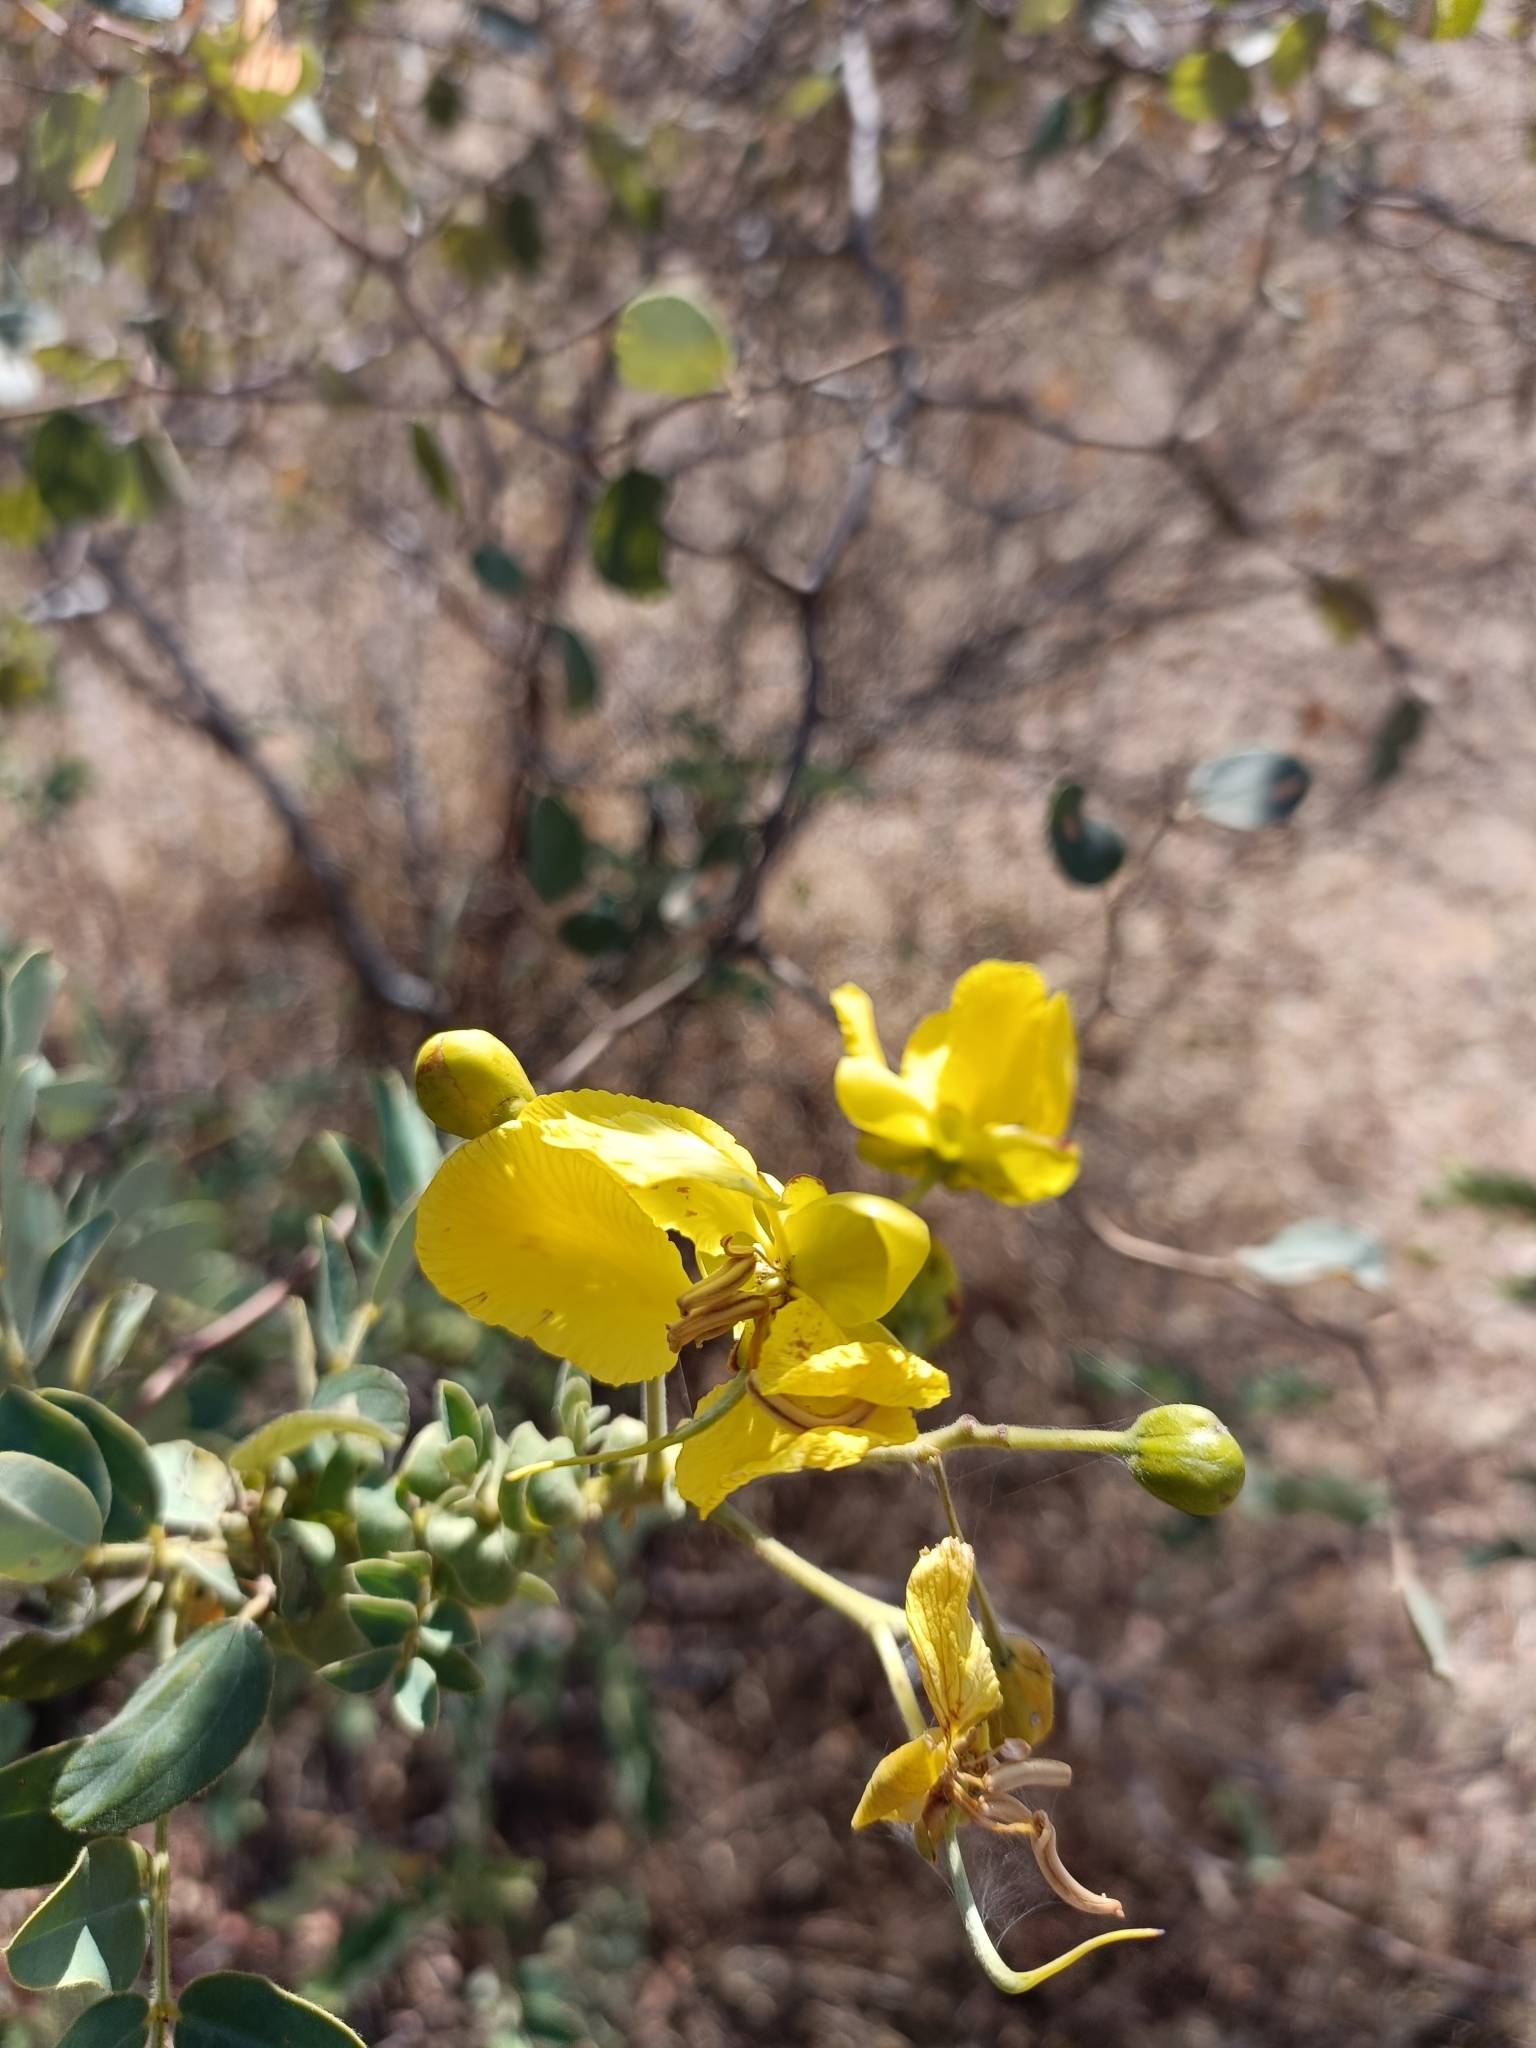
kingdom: Plantae
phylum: Tracheophyta
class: Magnoliopsida
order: Fabales
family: Fabaceae
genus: Senna
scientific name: Senna auriculata
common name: Tanner's cassia
